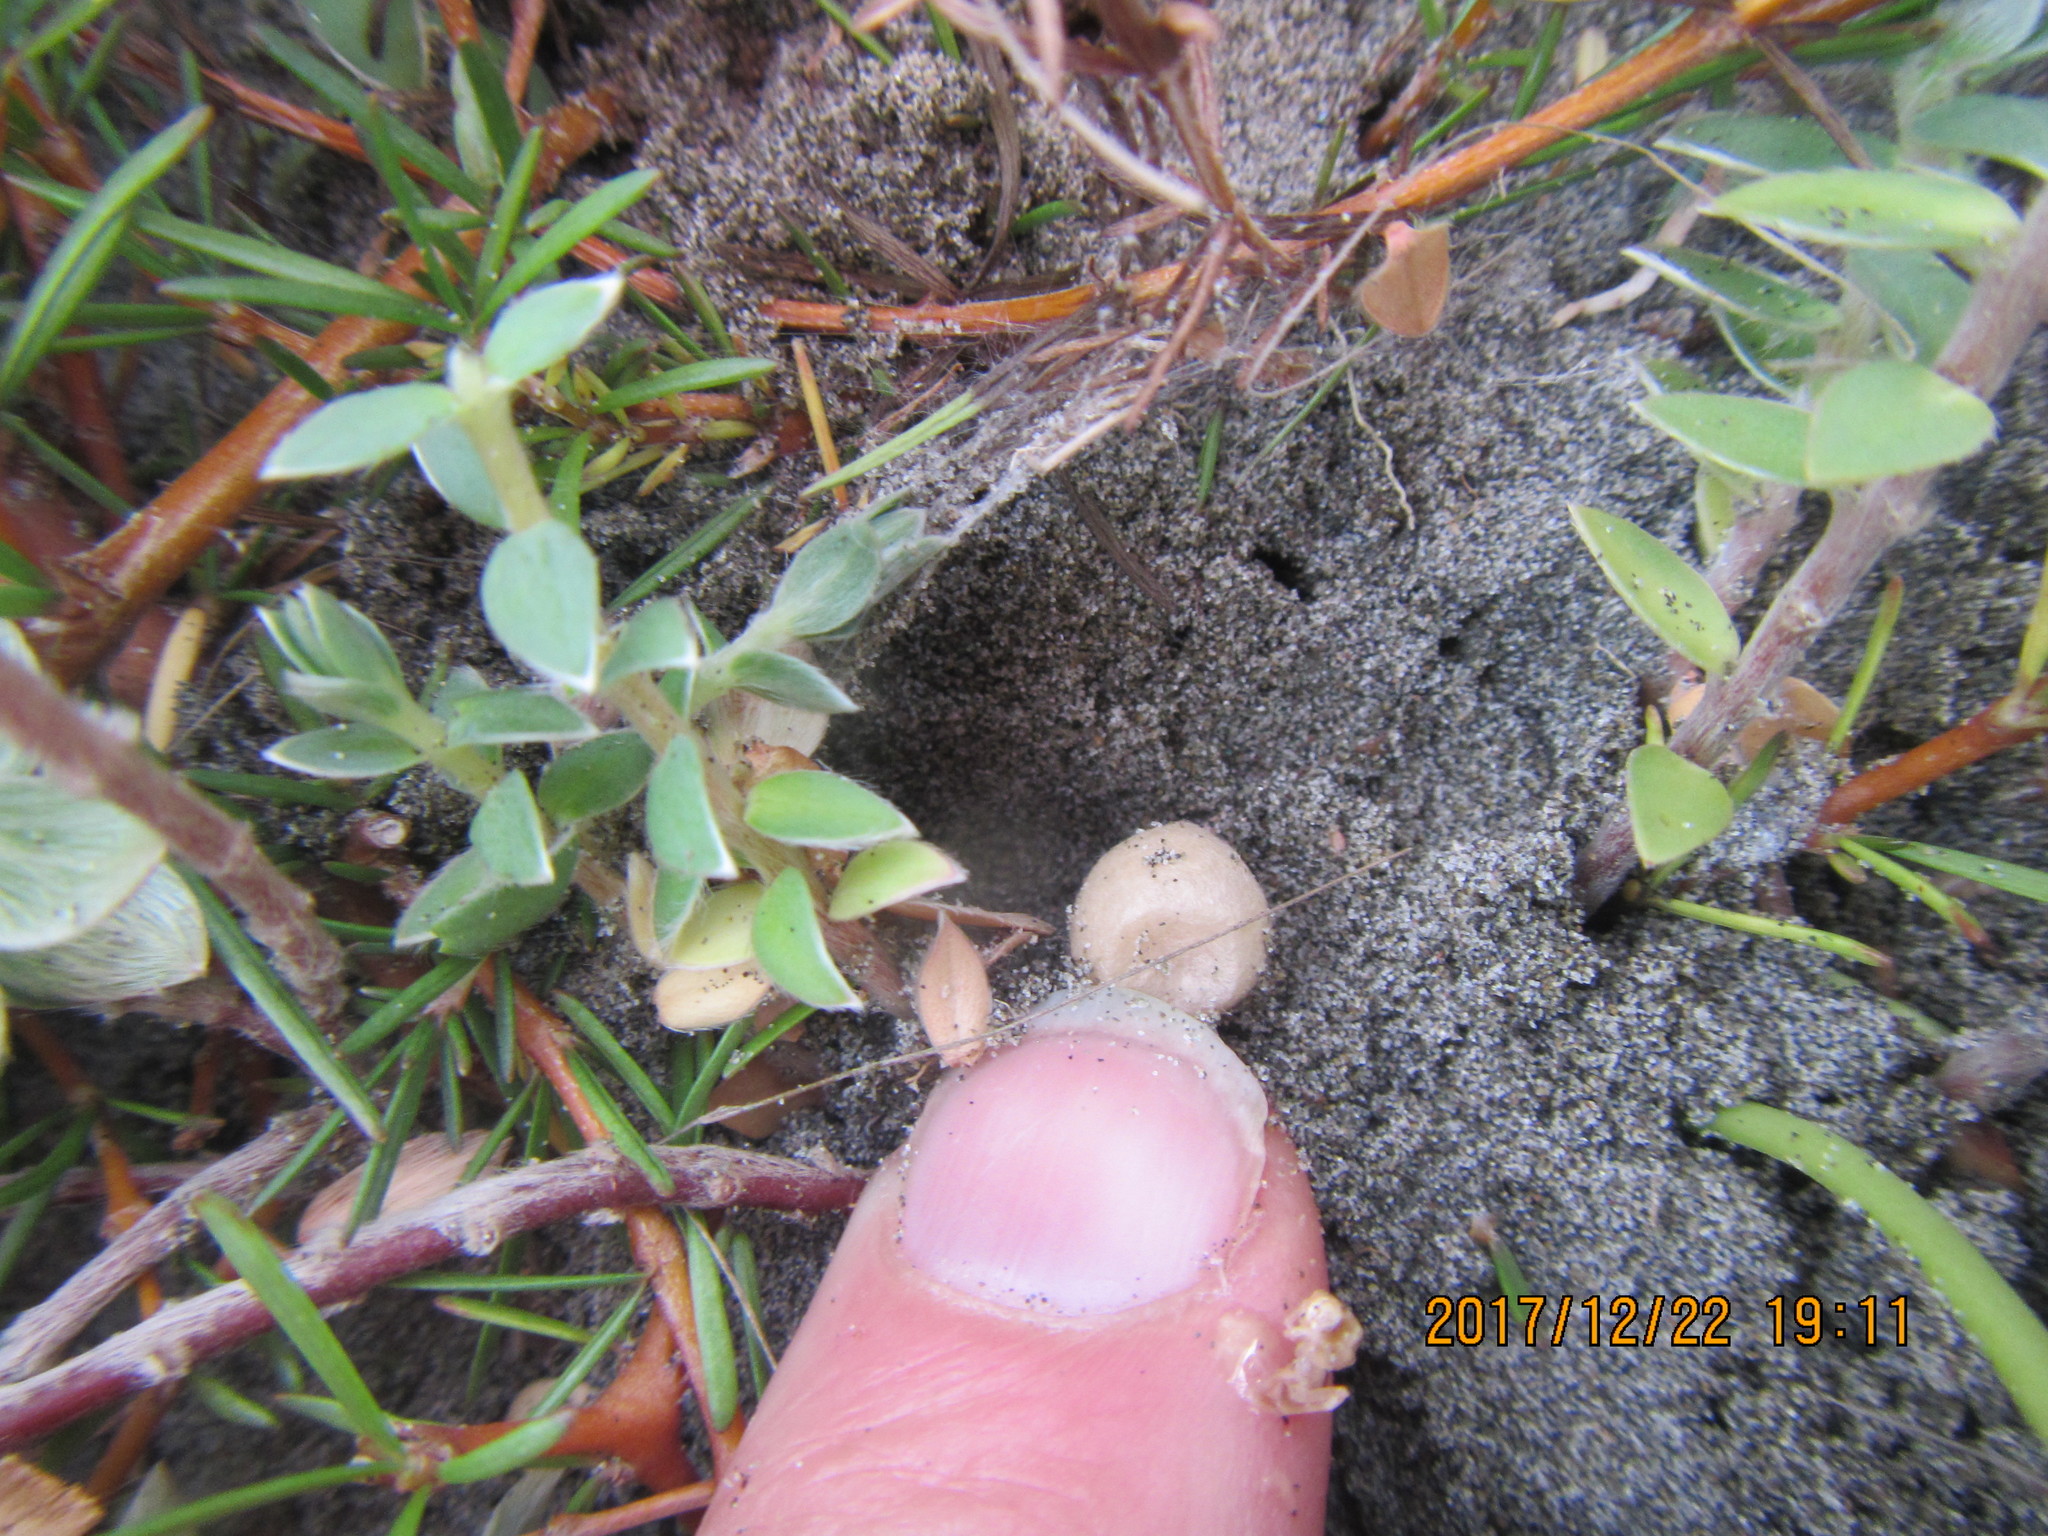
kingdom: Animalia
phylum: Arthropoda
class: Arachnida
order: Araneae
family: Thomisidae
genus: Sidymella
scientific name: Sidymella trapezia
